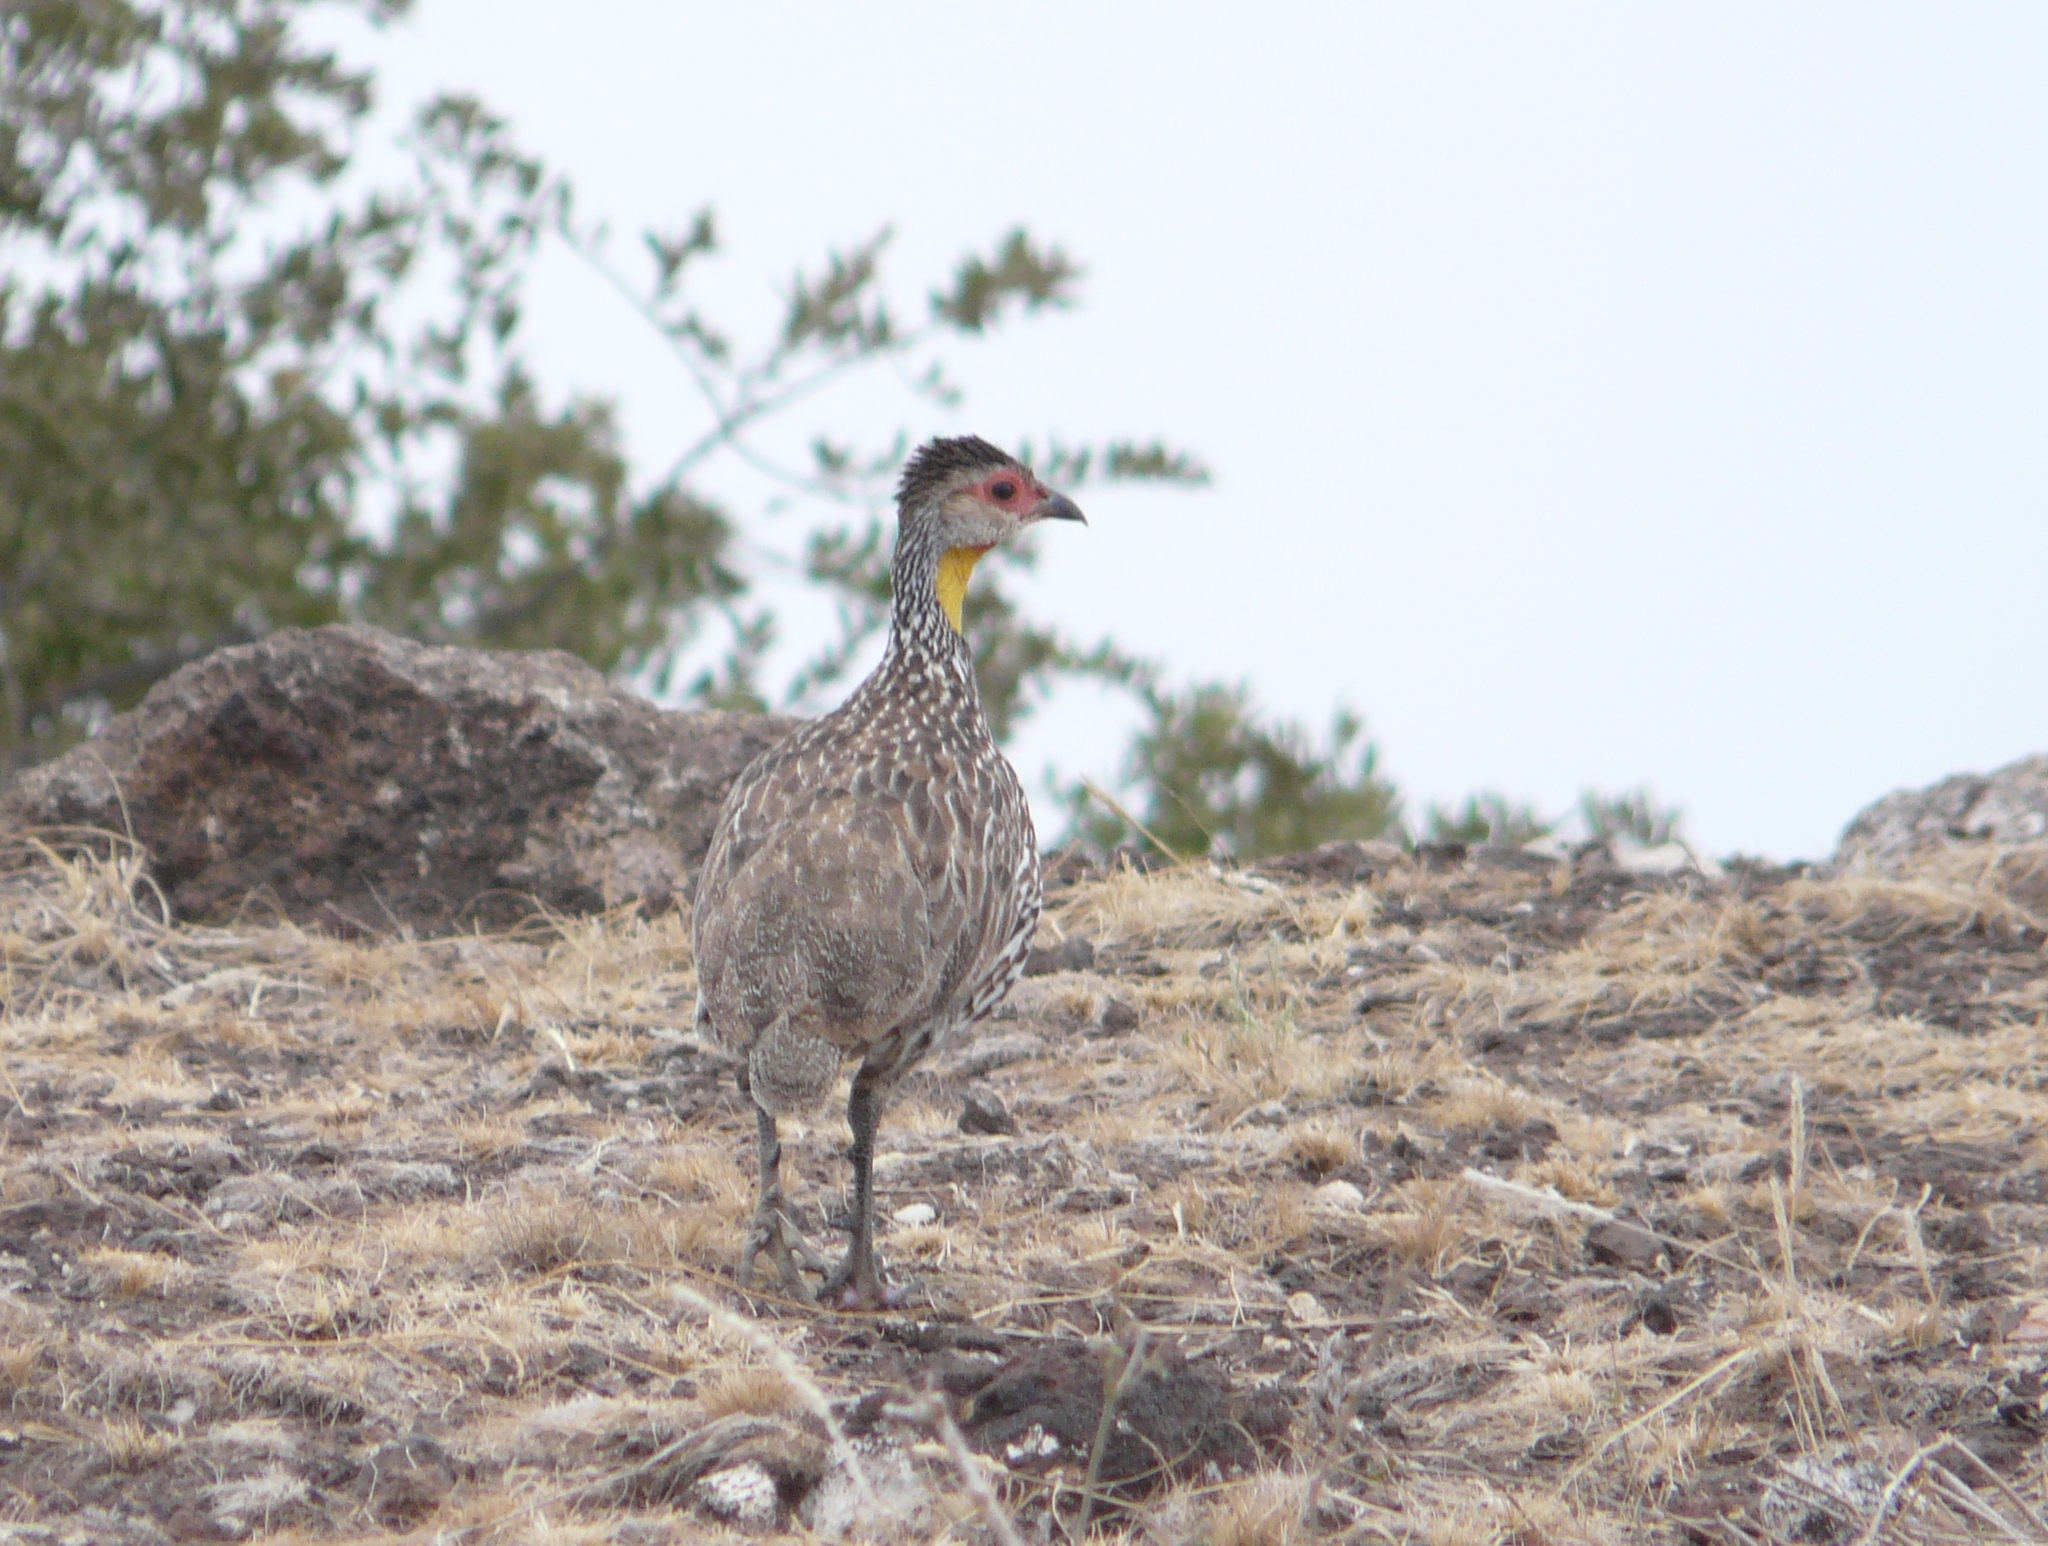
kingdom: Animalia
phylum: Chordata
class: Aves
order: Galliformes
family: Phasianidae
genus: Pternistis
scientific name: Pternistis leucoscepus
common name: Yellow-necked spurfowl
